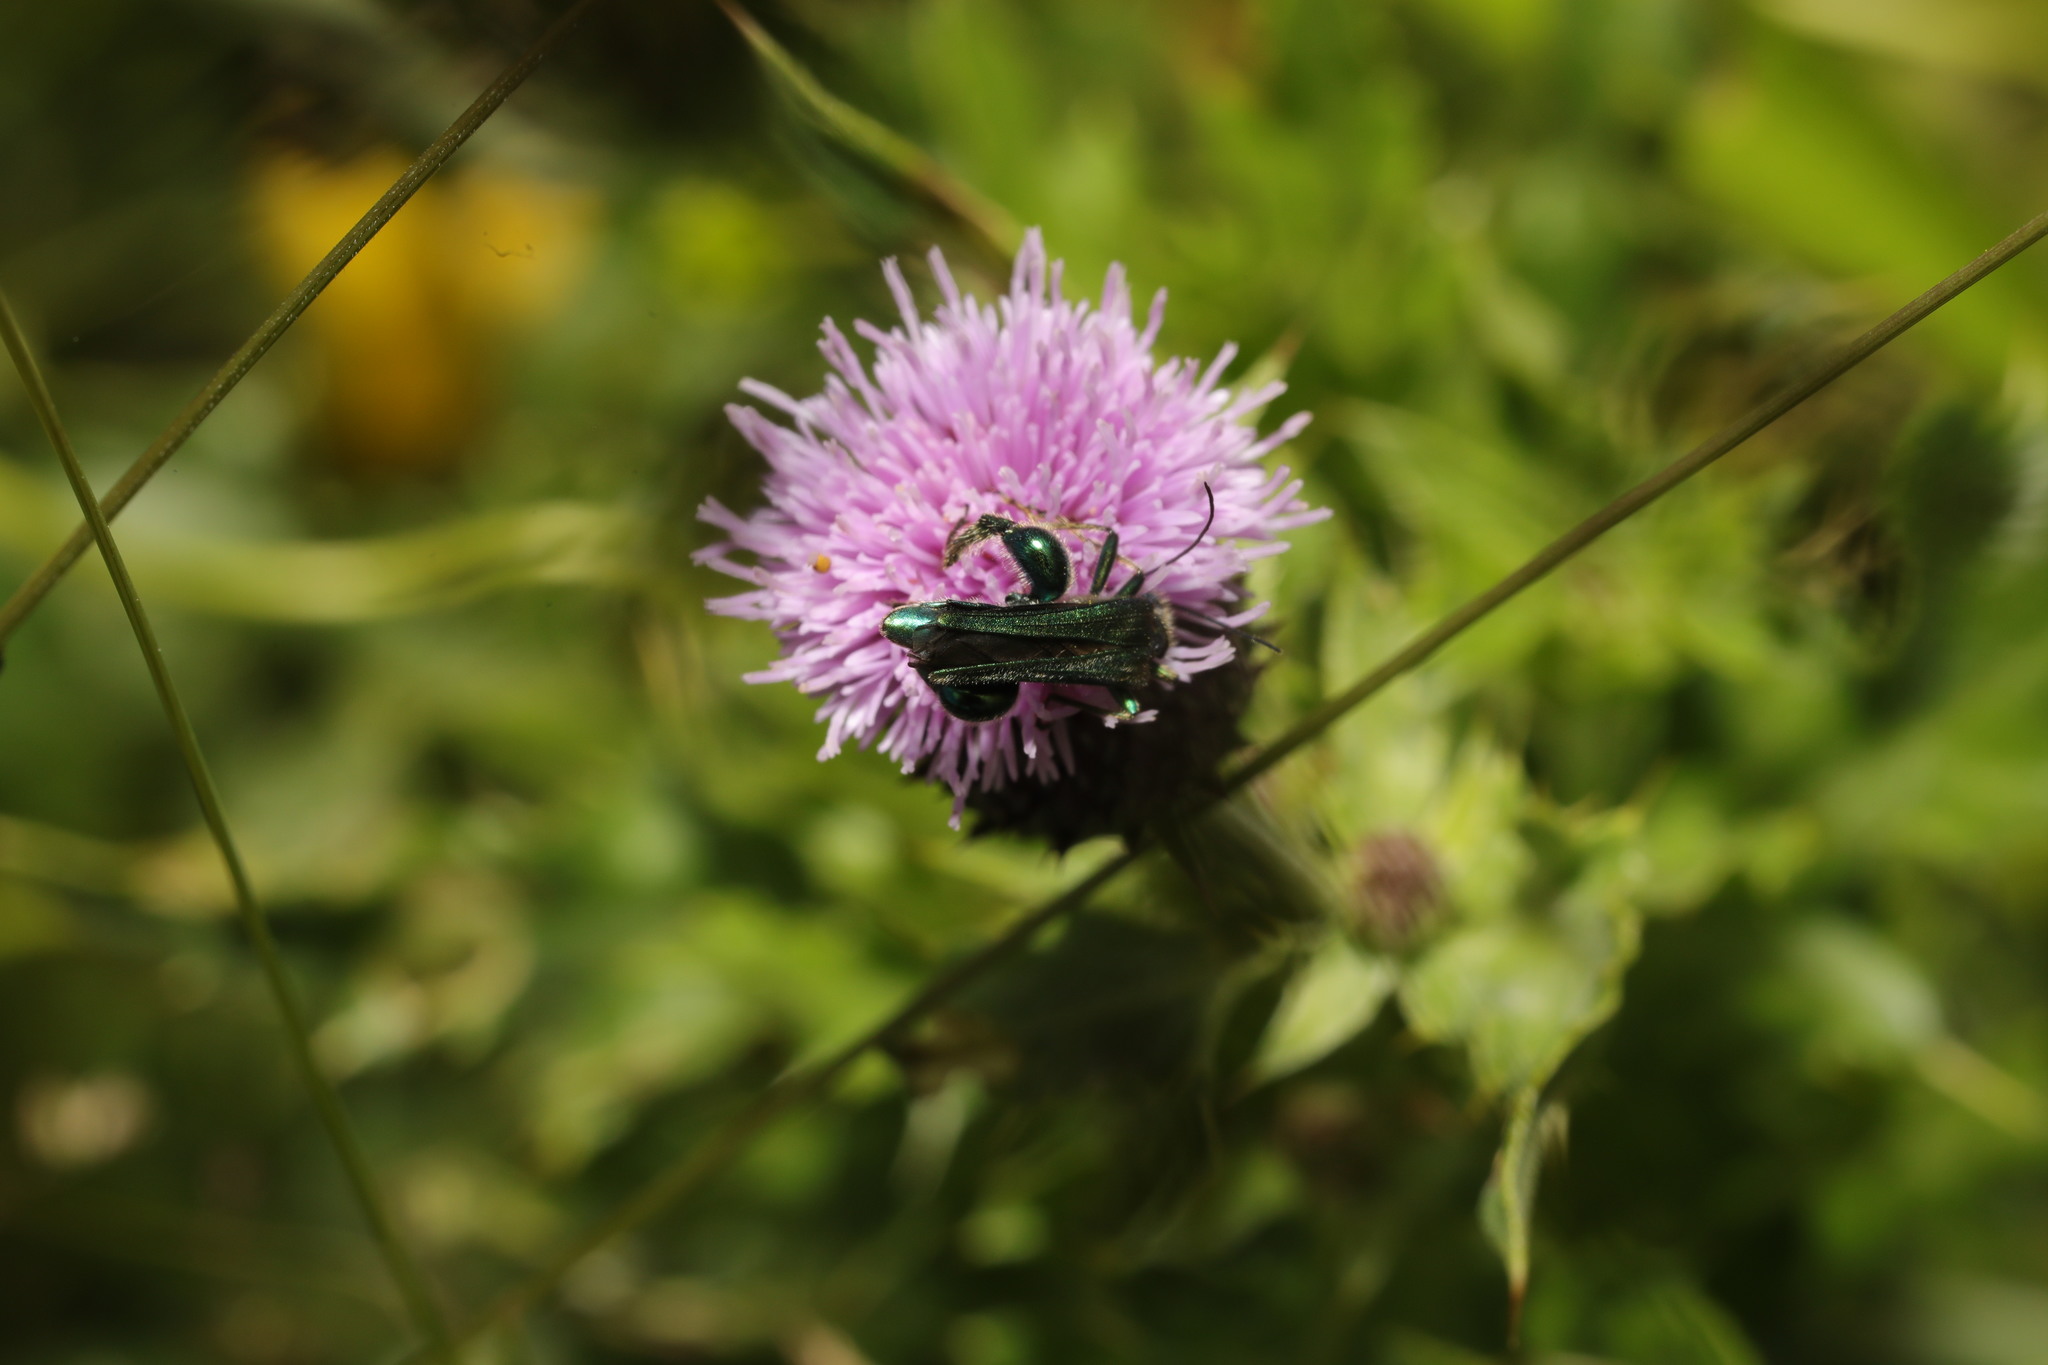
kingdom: Animalia
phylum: Arthropoda
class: Insecta
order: Coleoptera
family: Oedemeridae
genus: Oedemera
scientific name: Oedemera nobilis
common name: Swollen-thighed beetle
